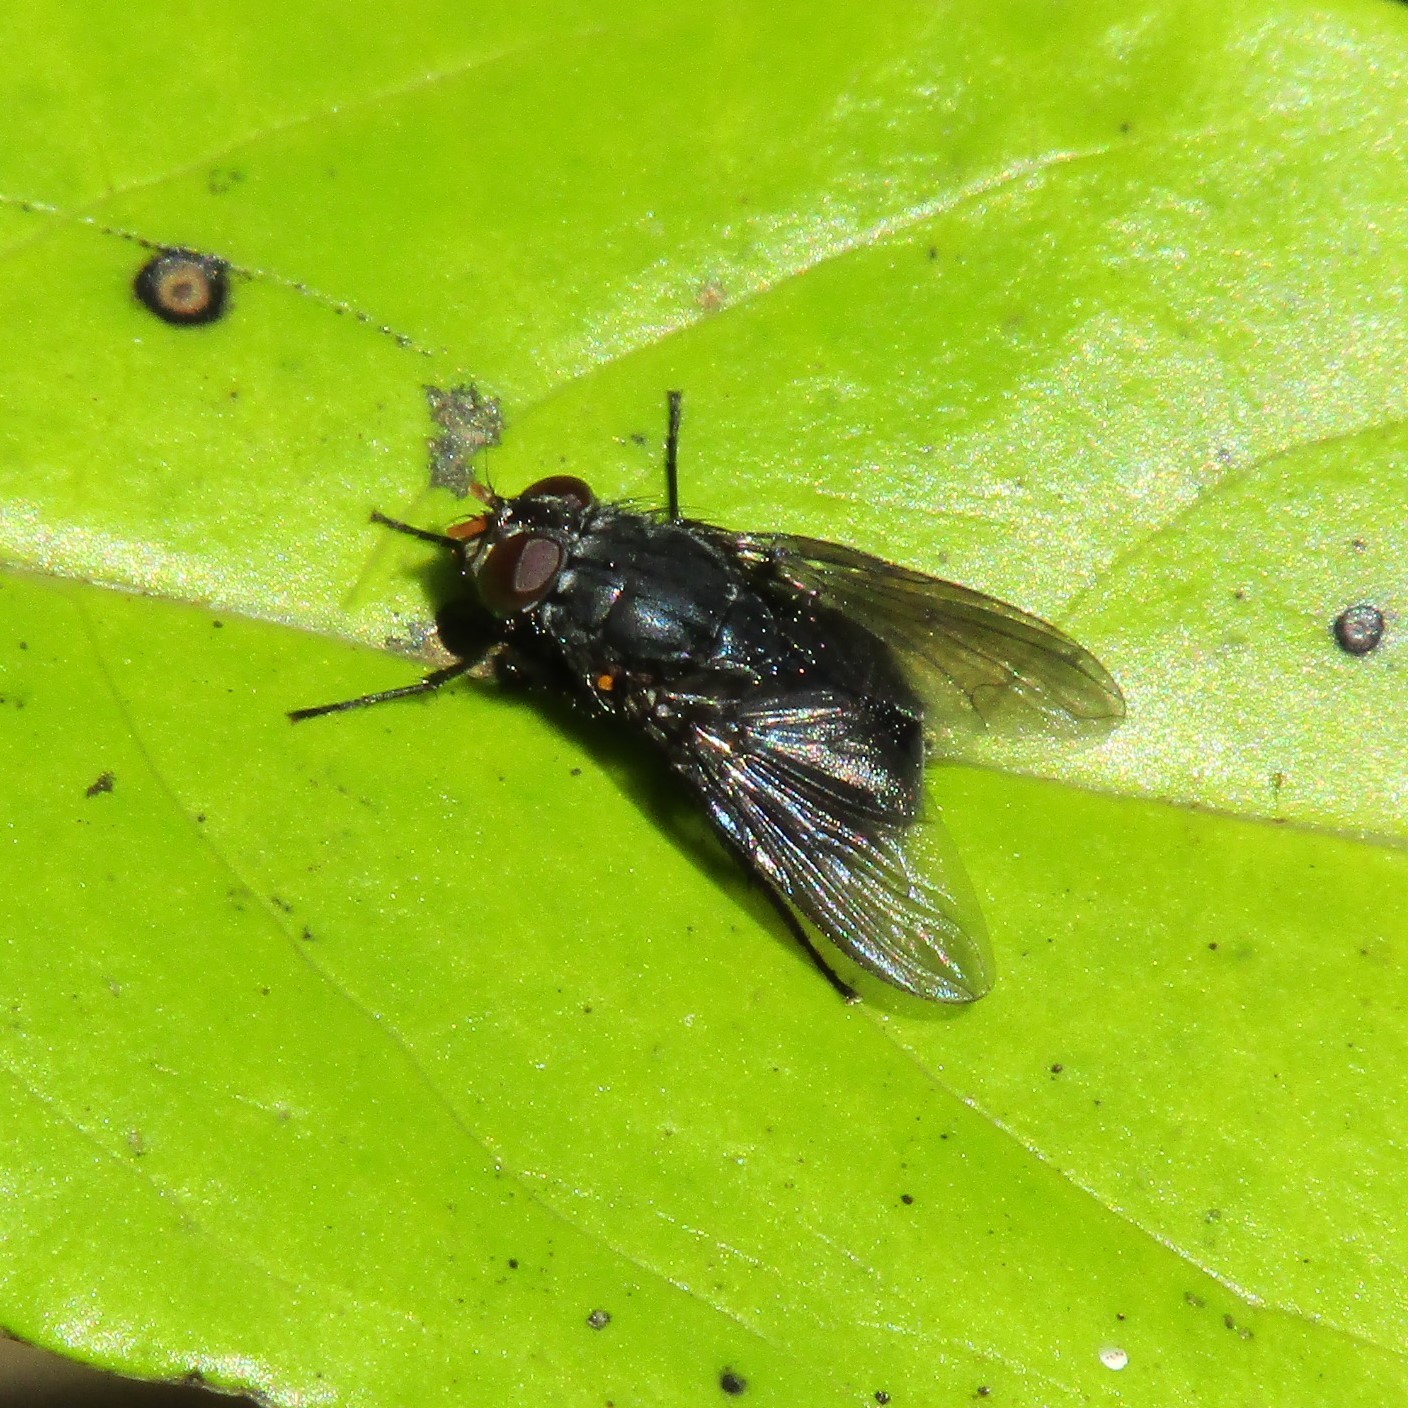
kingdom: Animalia
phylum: Arthropoda
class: Insecta
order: Diptera
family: Muscidae
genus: Calliphoroides
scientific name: Calliphoroides antennatis
